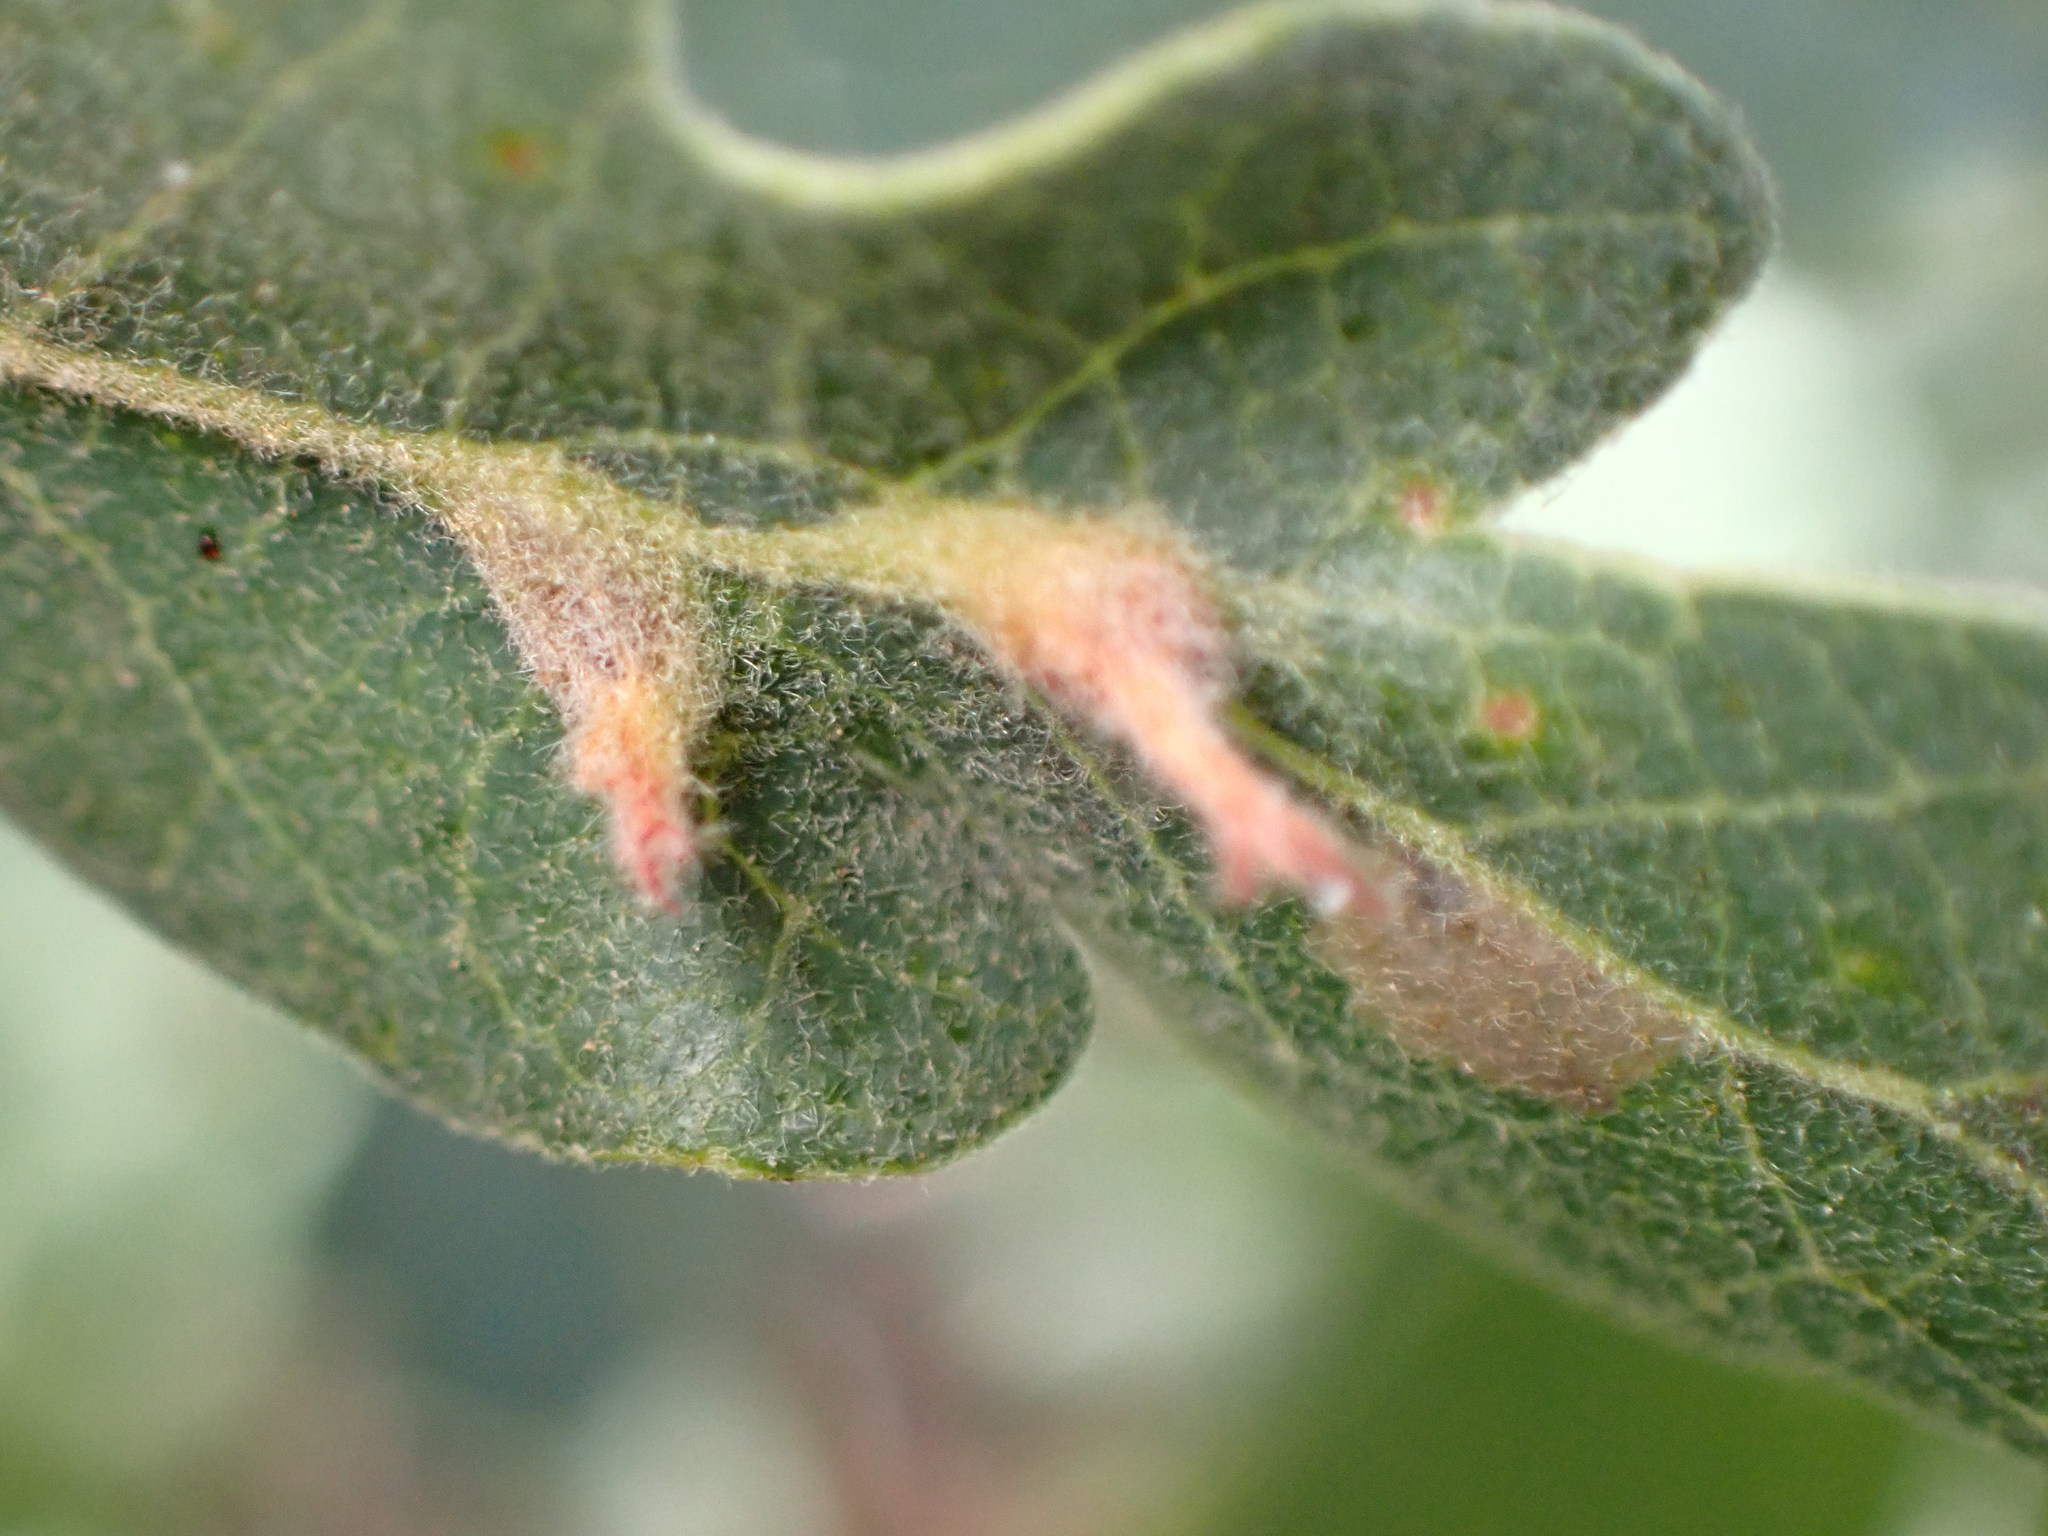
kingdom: Animalia
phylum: Arthropoda
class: Insecta
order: Hymenoptera
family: Cynipidae
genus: Andricus
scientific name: Andricus
